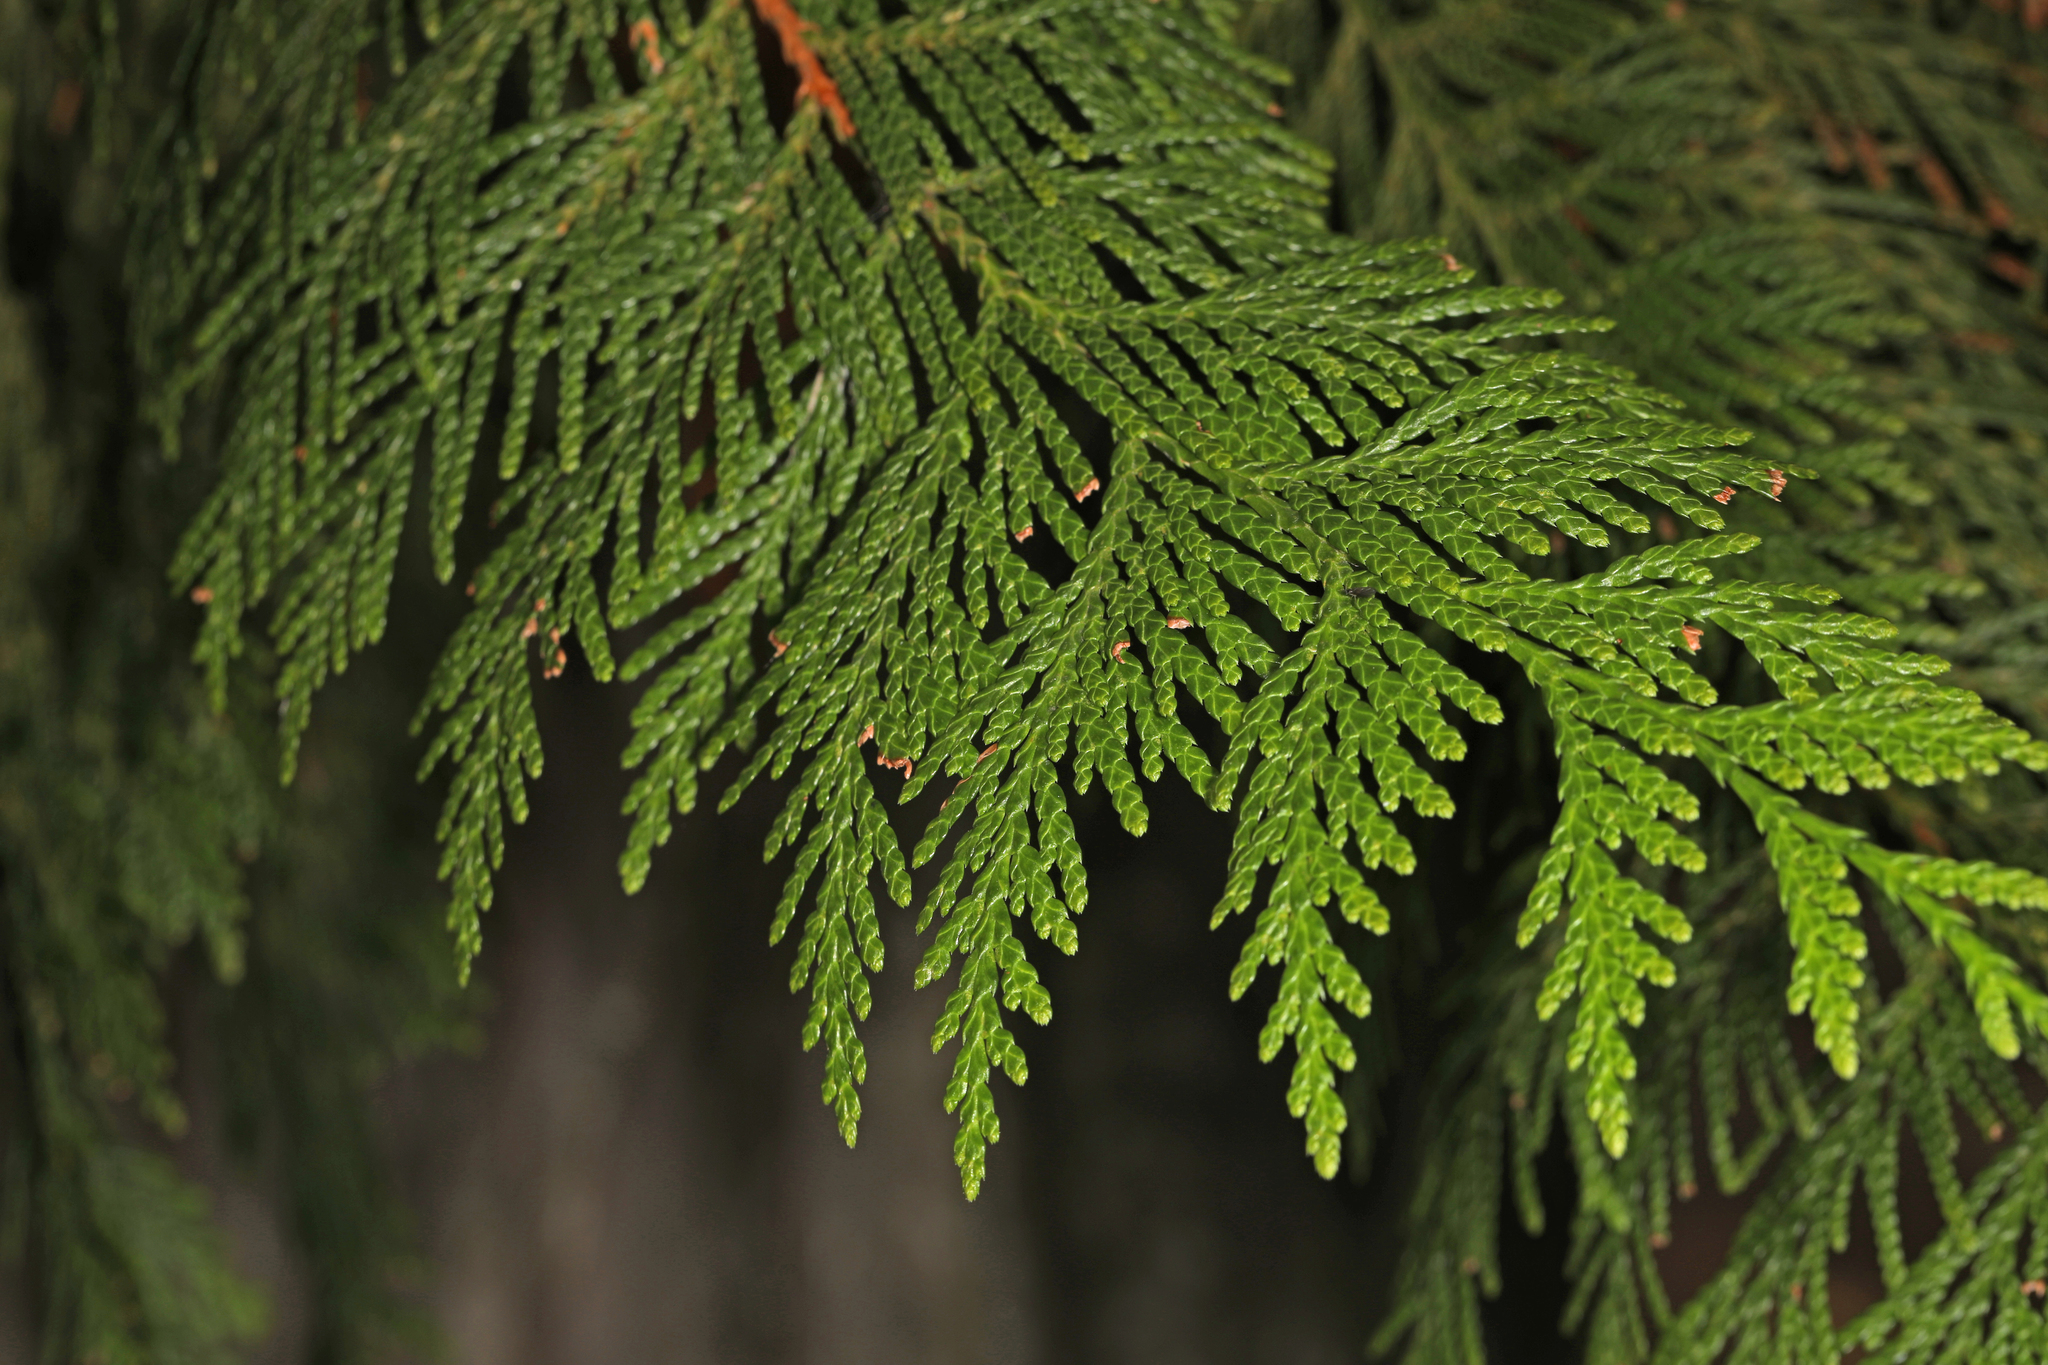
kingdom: Plantae
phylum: Tracheophyta
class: Pinopsida
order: Pinales
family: Cupressaceae
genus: Thuja
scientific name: Thuja plicata
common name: Western red-cedar
